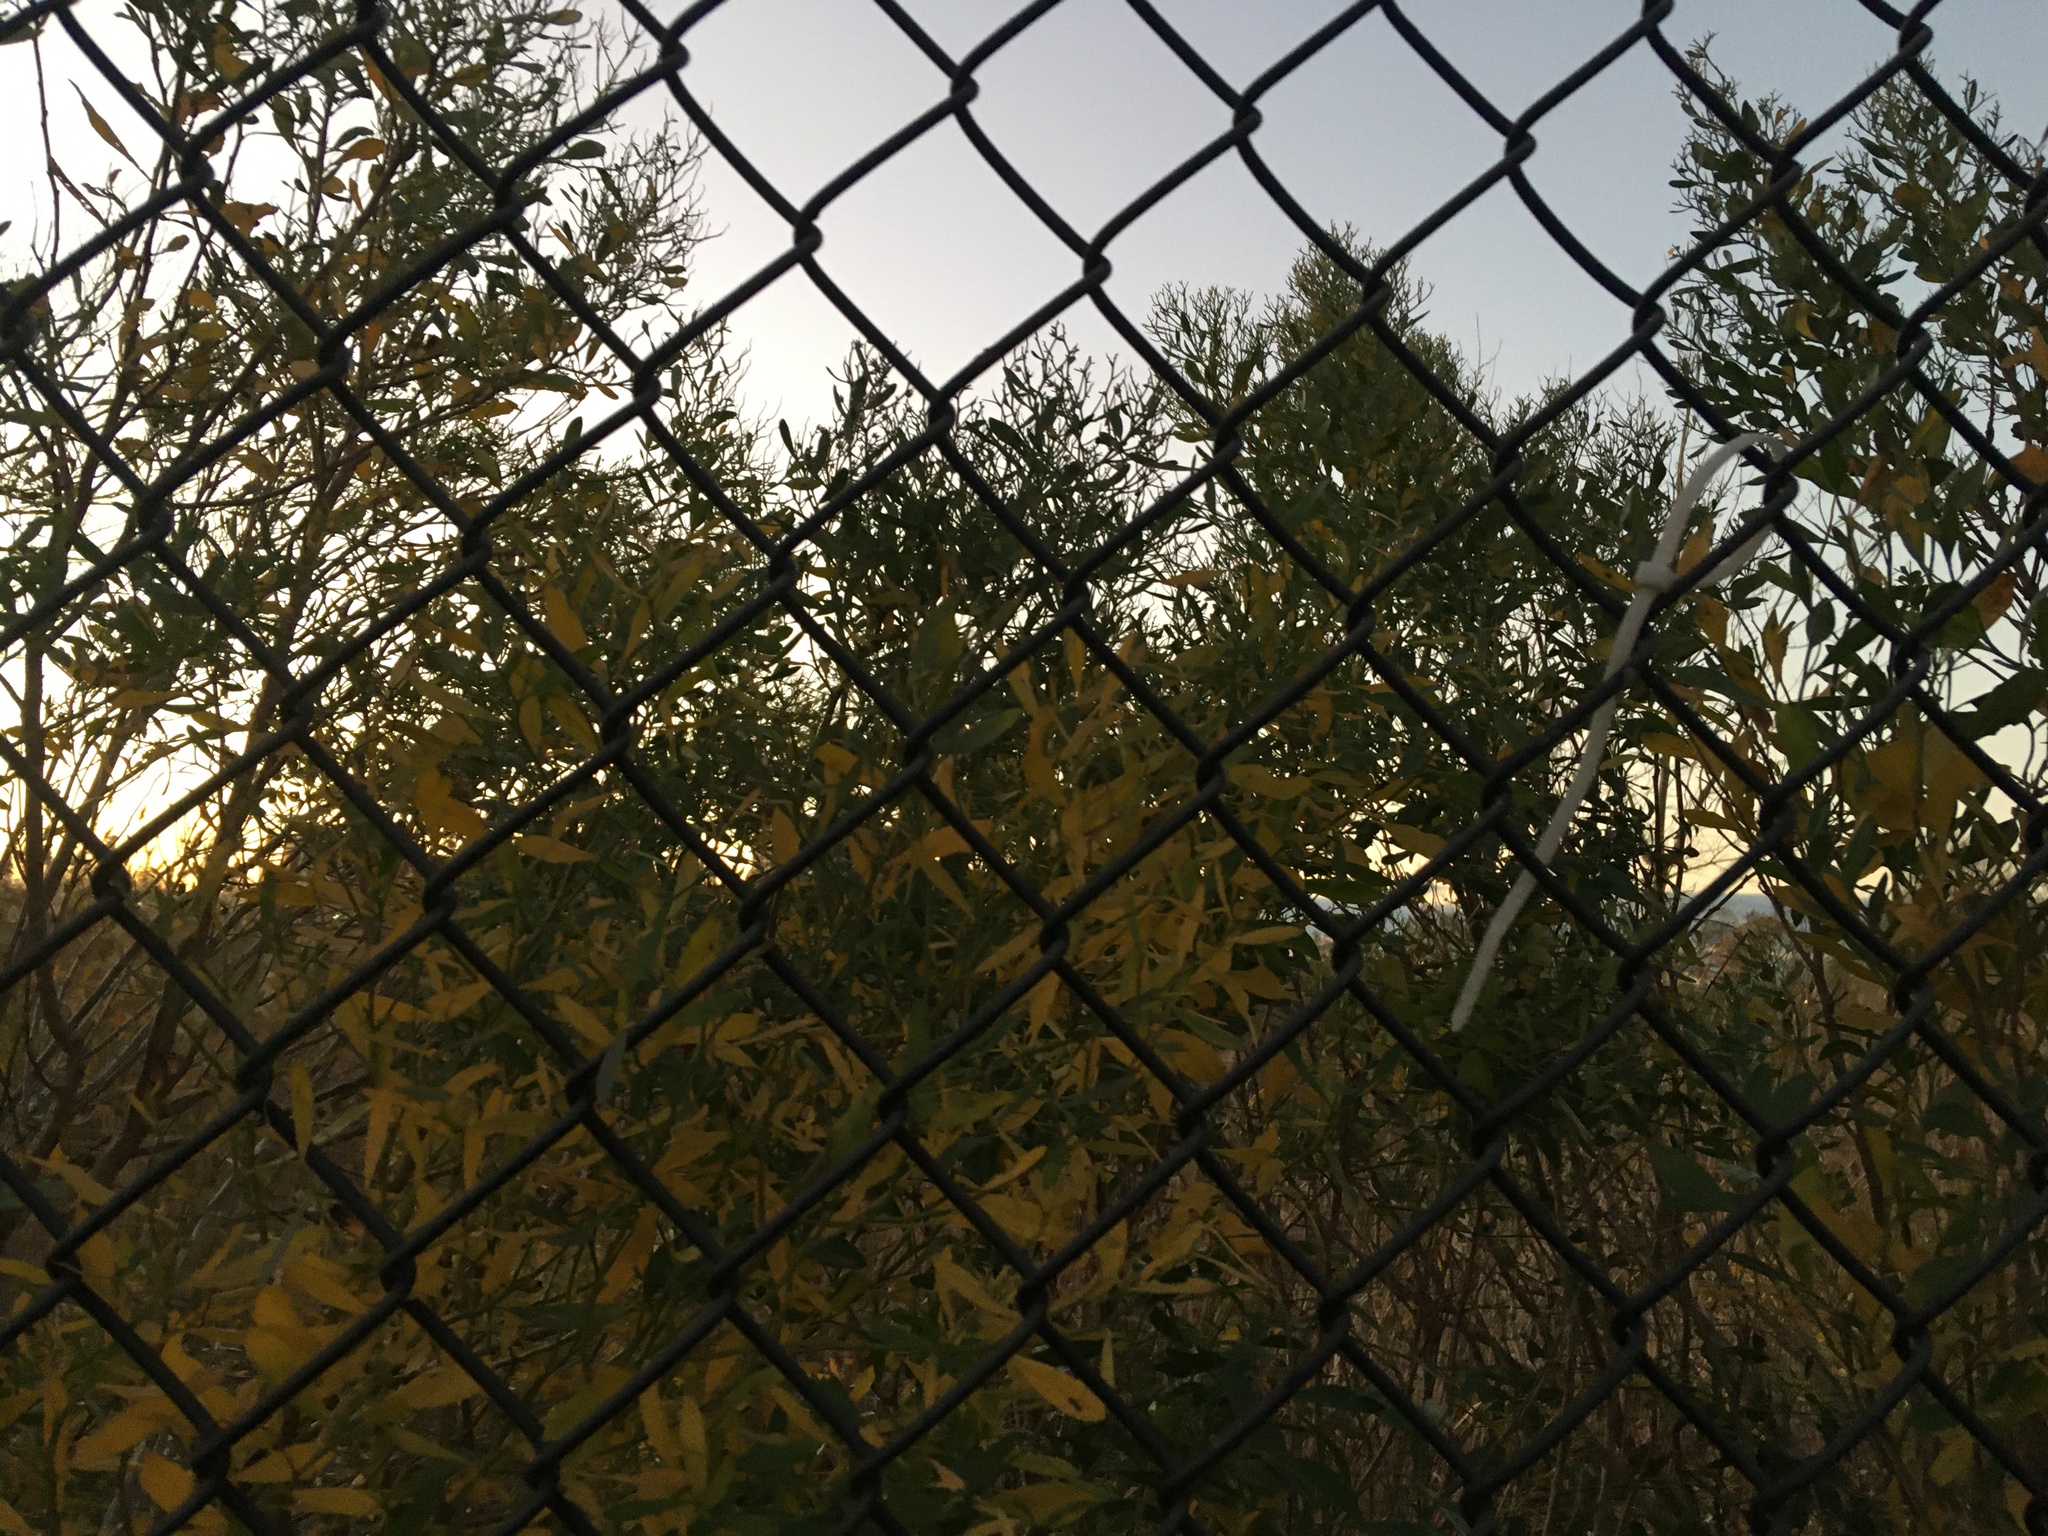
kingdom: Plantae
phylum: Tracheophyta
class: Magnoliopsida
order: Asterales
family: Asteraceae
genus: Baccharis
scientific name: Baccharis halimifolia
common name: Eastern baccharis
